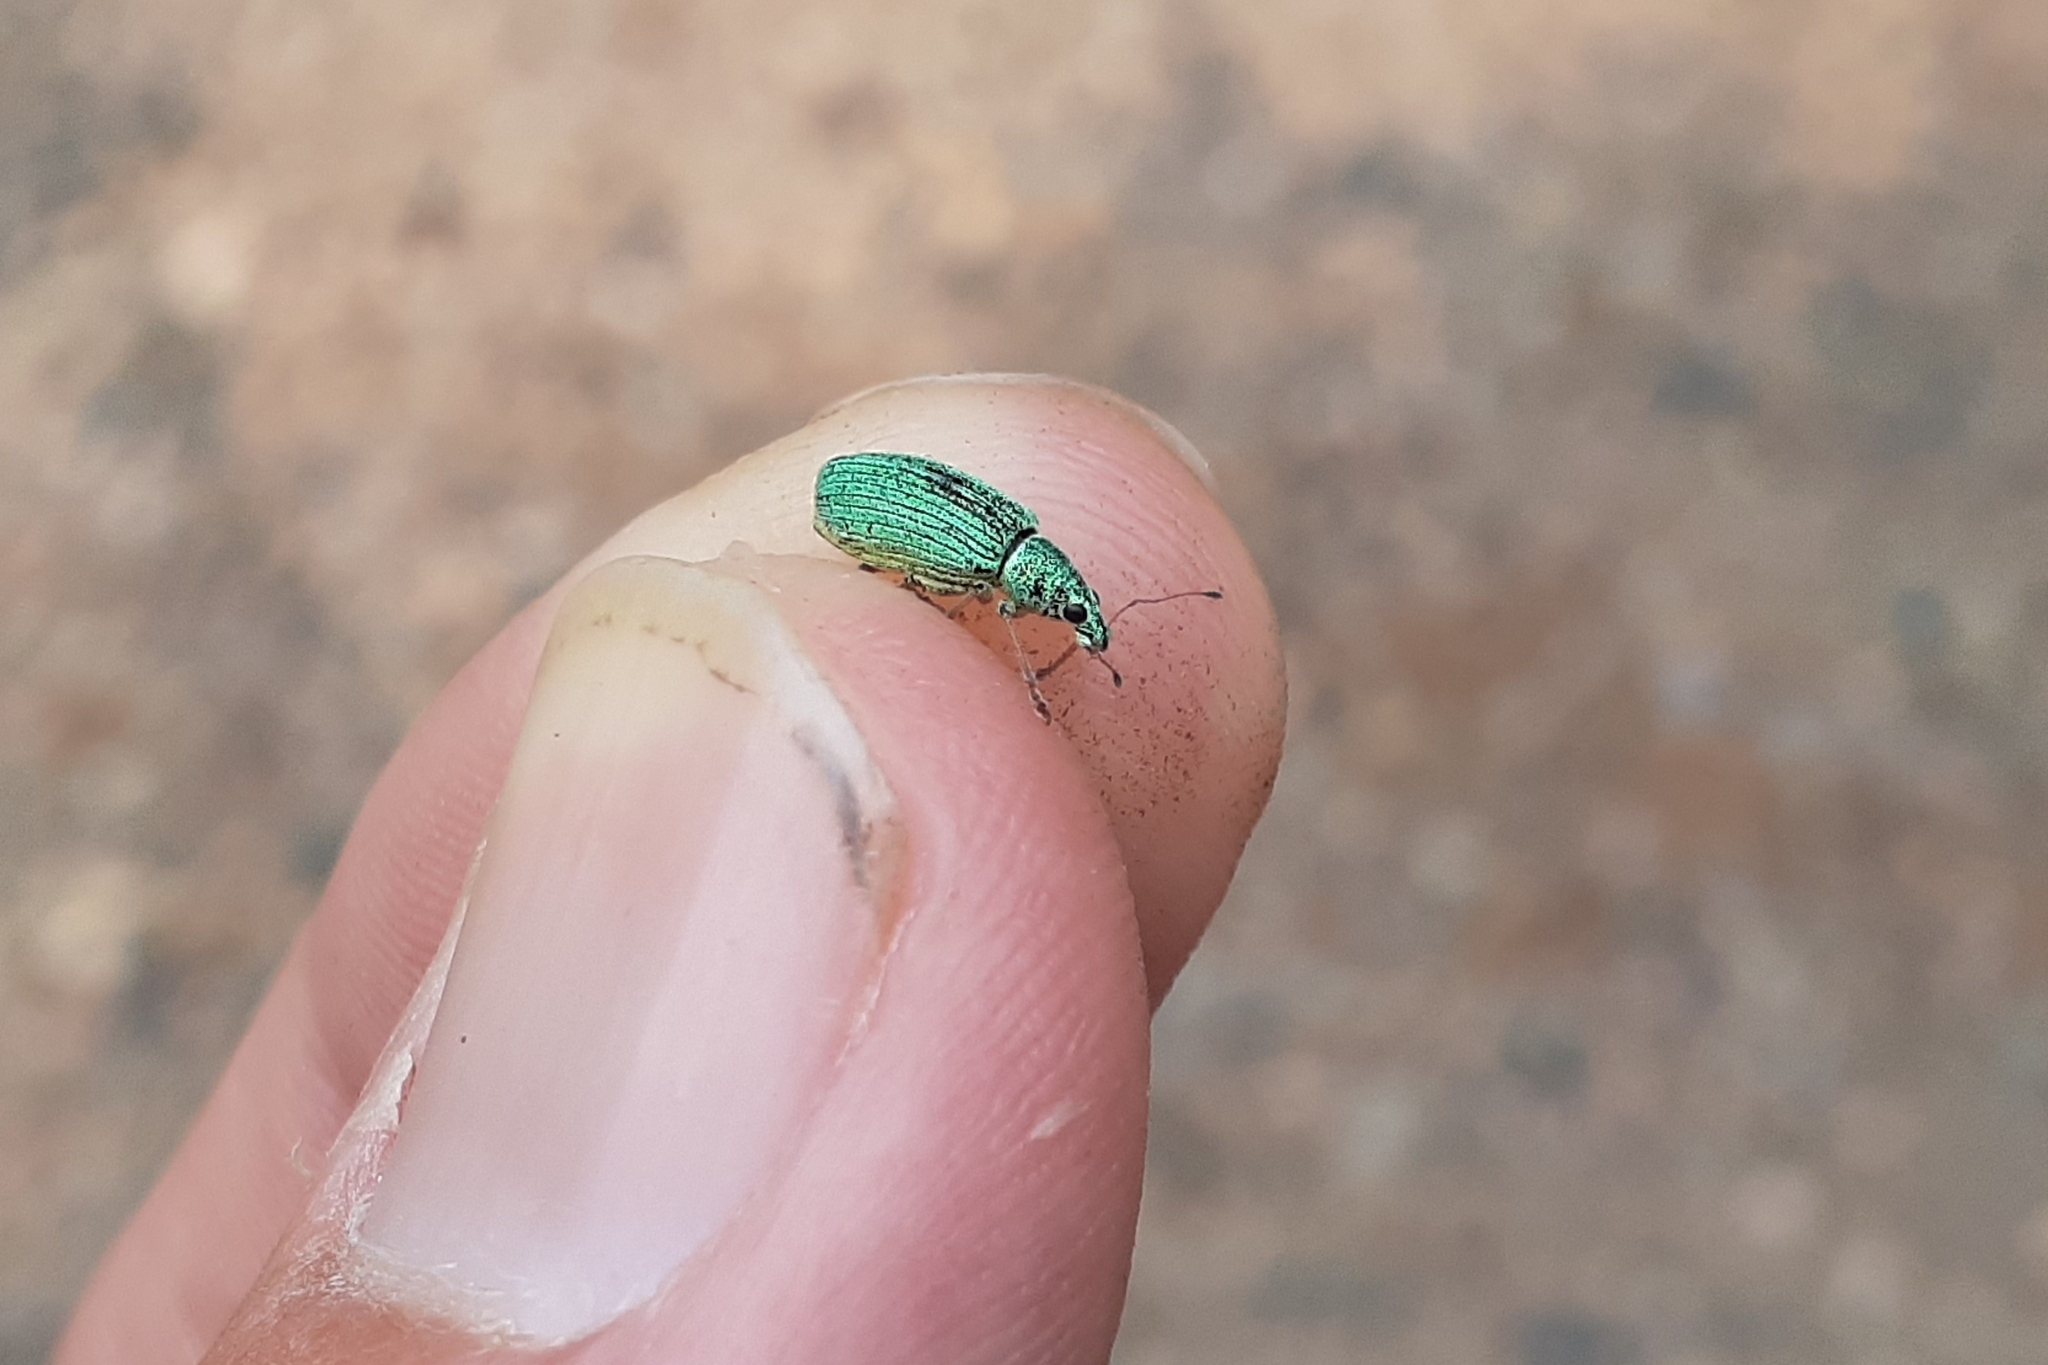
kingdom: Animalia
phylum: Arthropoda
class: Insecta
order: Coleoptera
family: Curculionidae
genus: Polydrusus
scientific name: Polydrusus formosus
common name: Weevil
